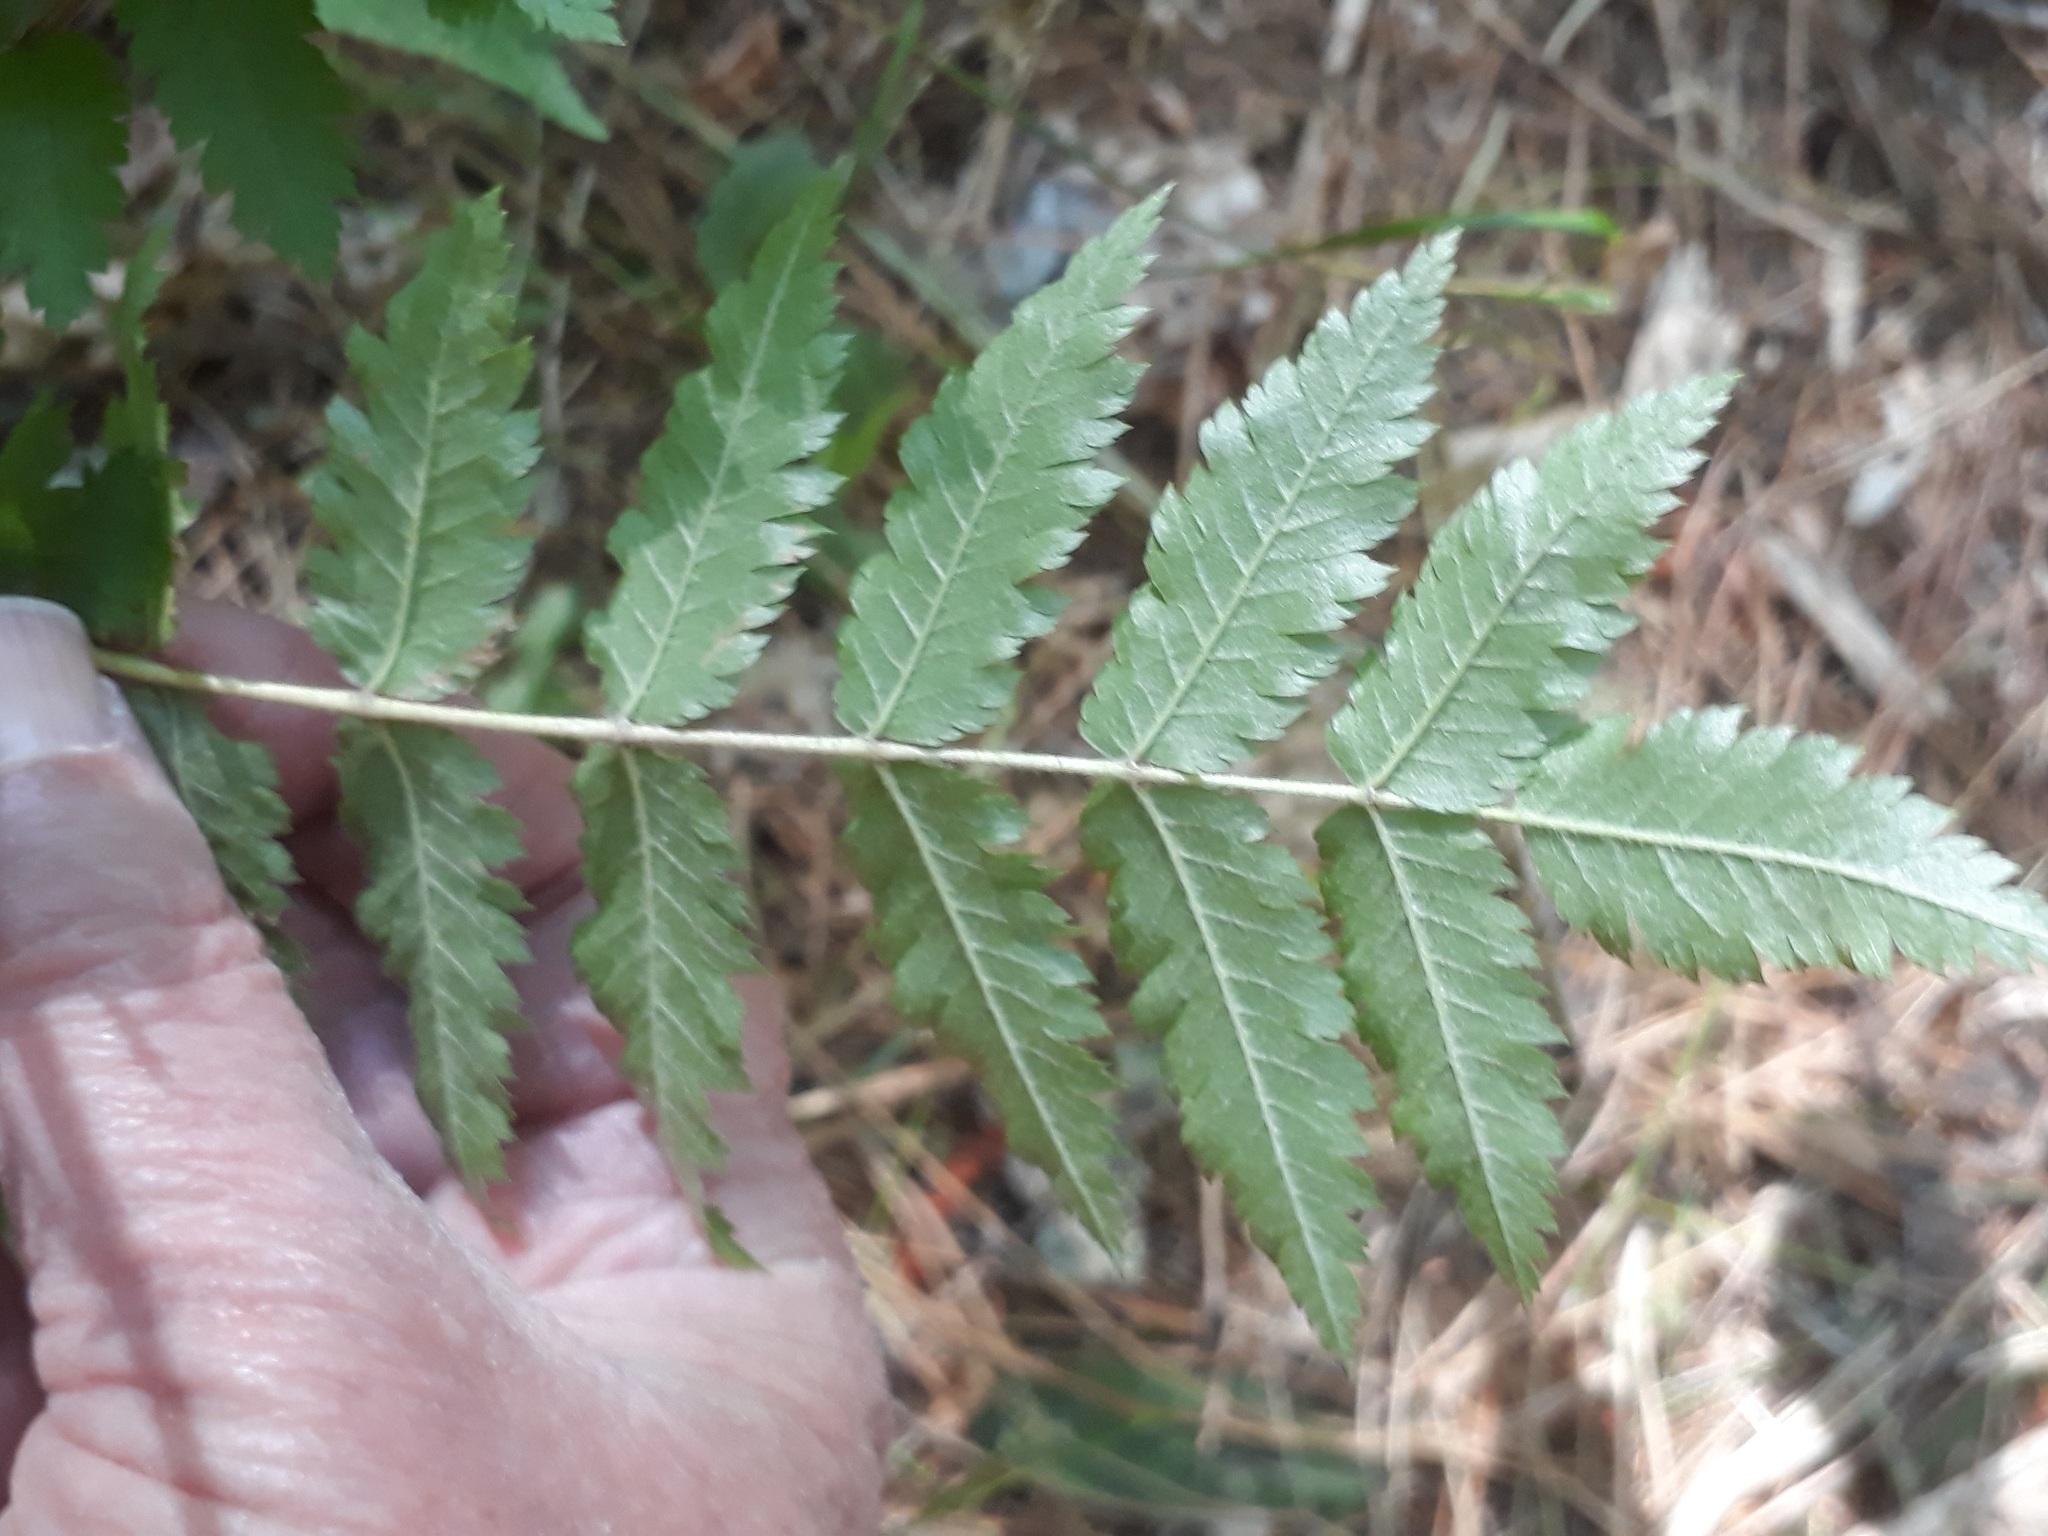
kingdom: Plantae
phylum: Tracheophyta
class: Magnoliopsida
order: Rosales
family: Rosaceae
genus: Sorbus
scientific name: Sorbus aucuparia
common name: Rowan
